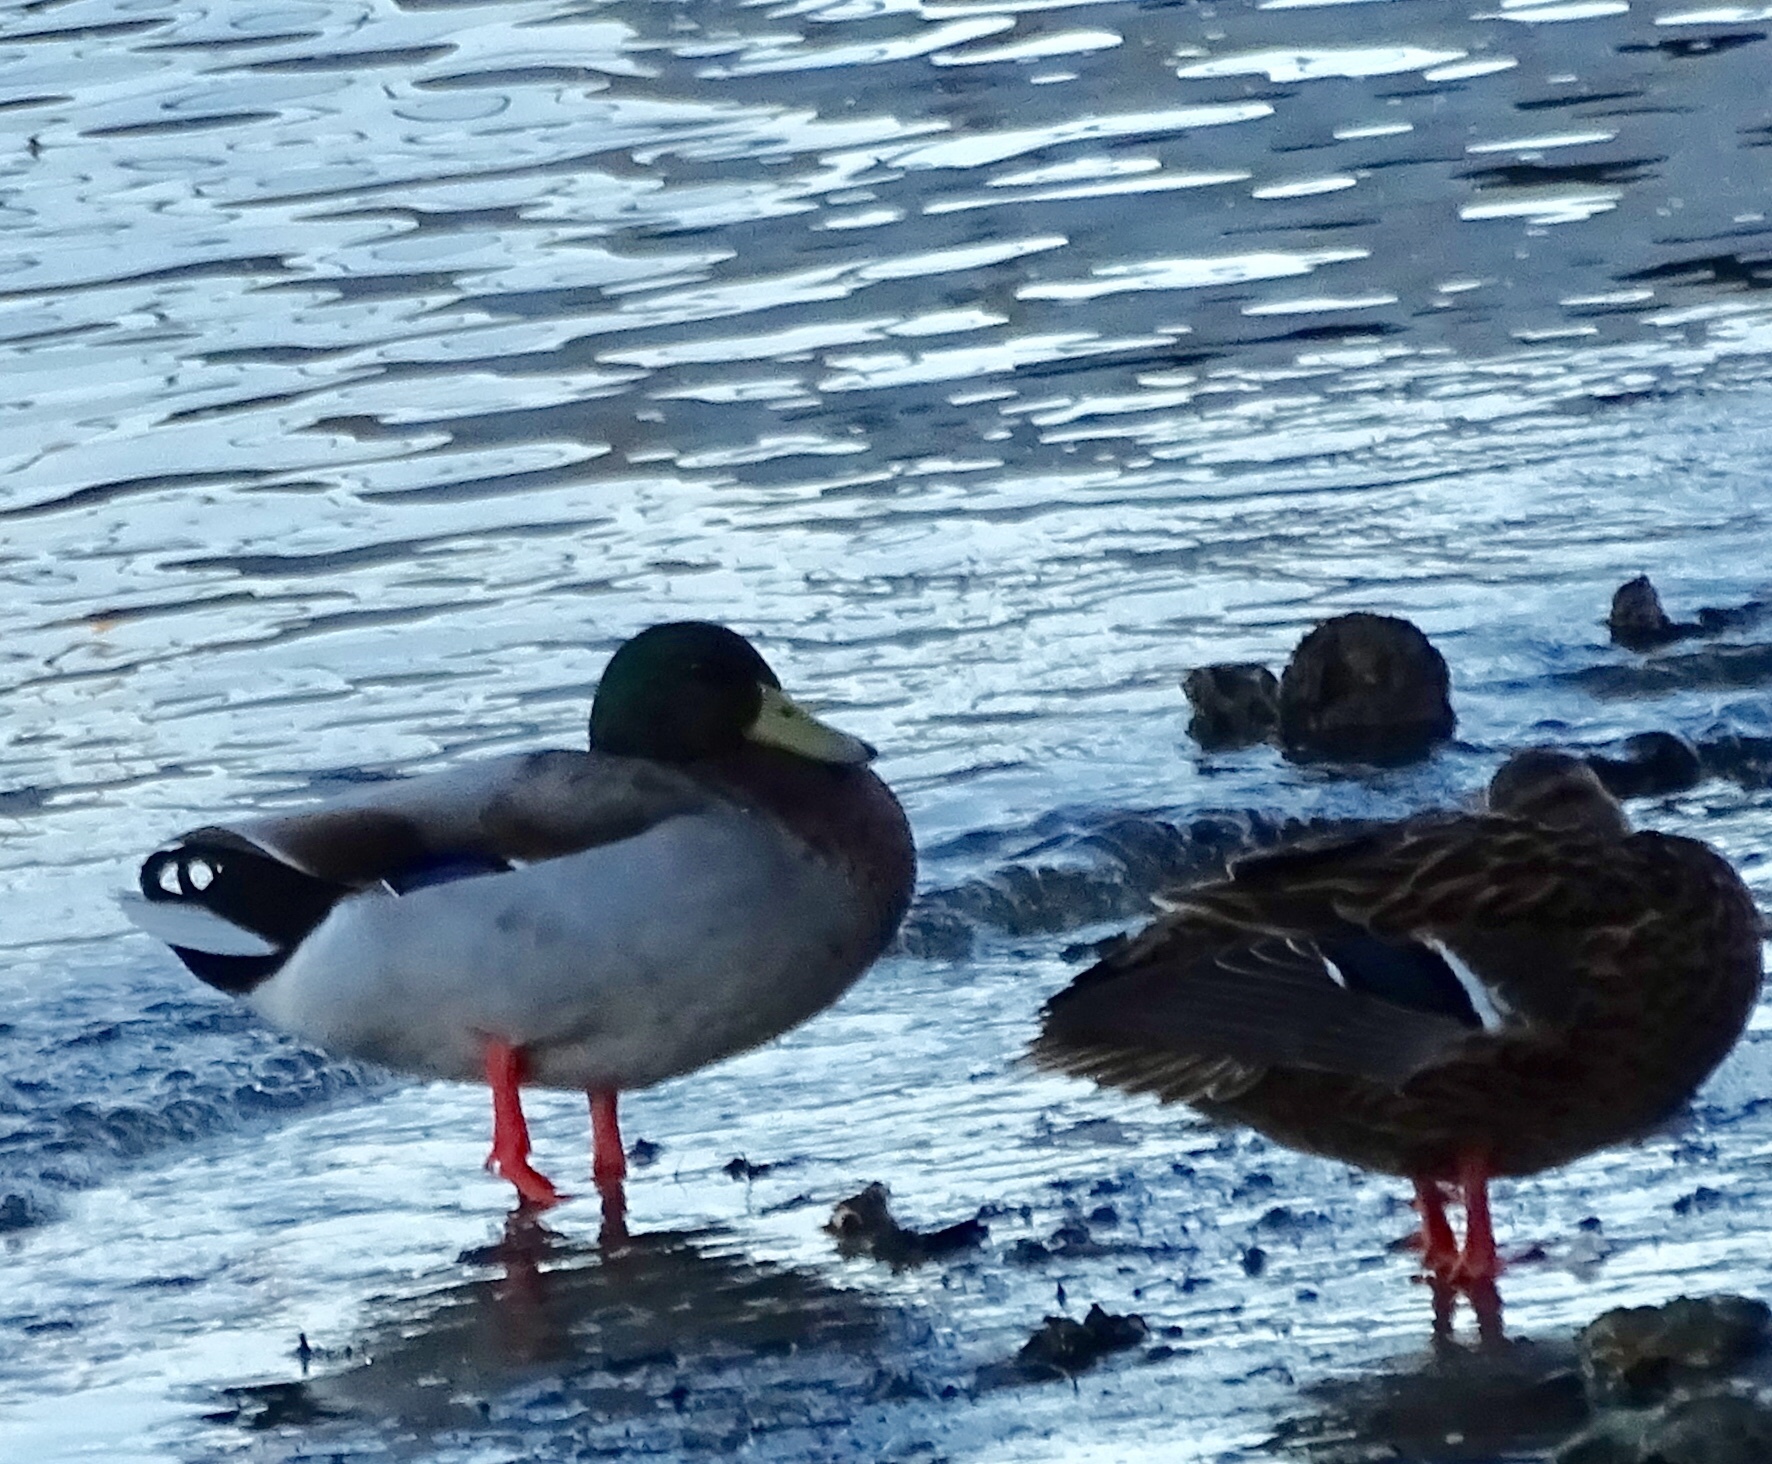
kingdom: Animalia
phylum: Chordata
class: Aves
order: Anseriformes
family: Anatidae
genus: Anas
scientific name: Anas platyrhynchos
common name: Mallard
